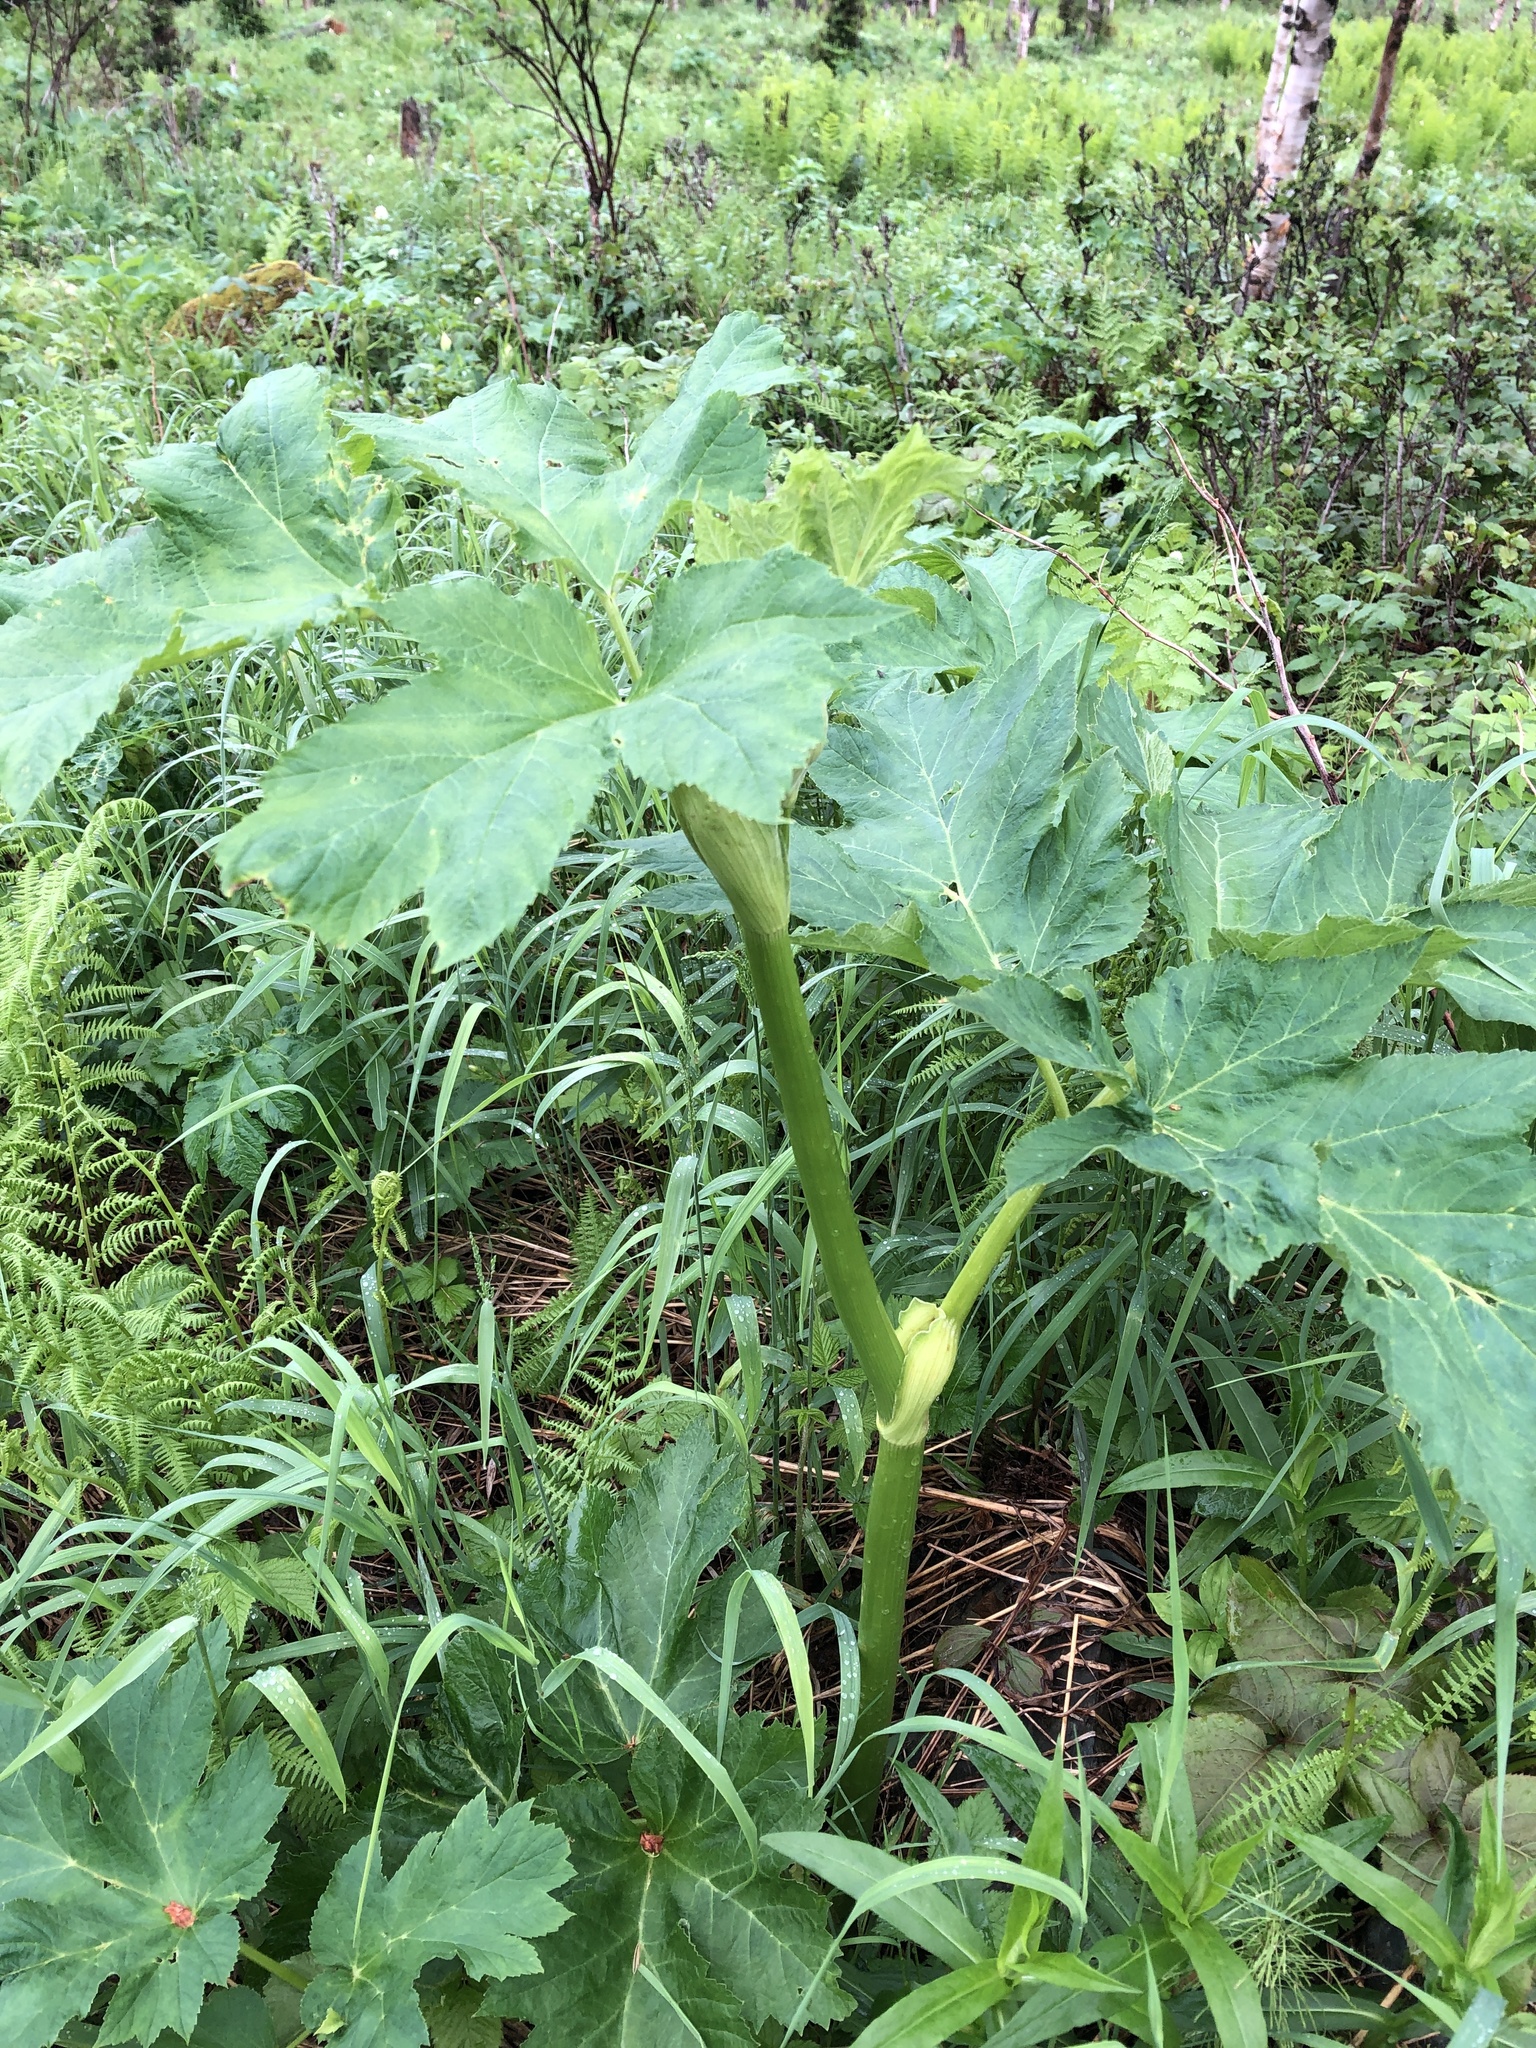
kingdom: Plantae
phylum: Tracheophyta
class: Magnoliopsida
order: Apiales
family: Apiaceae
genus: Heracleum
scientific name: Heracleum maximum
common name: American cow parsnip
